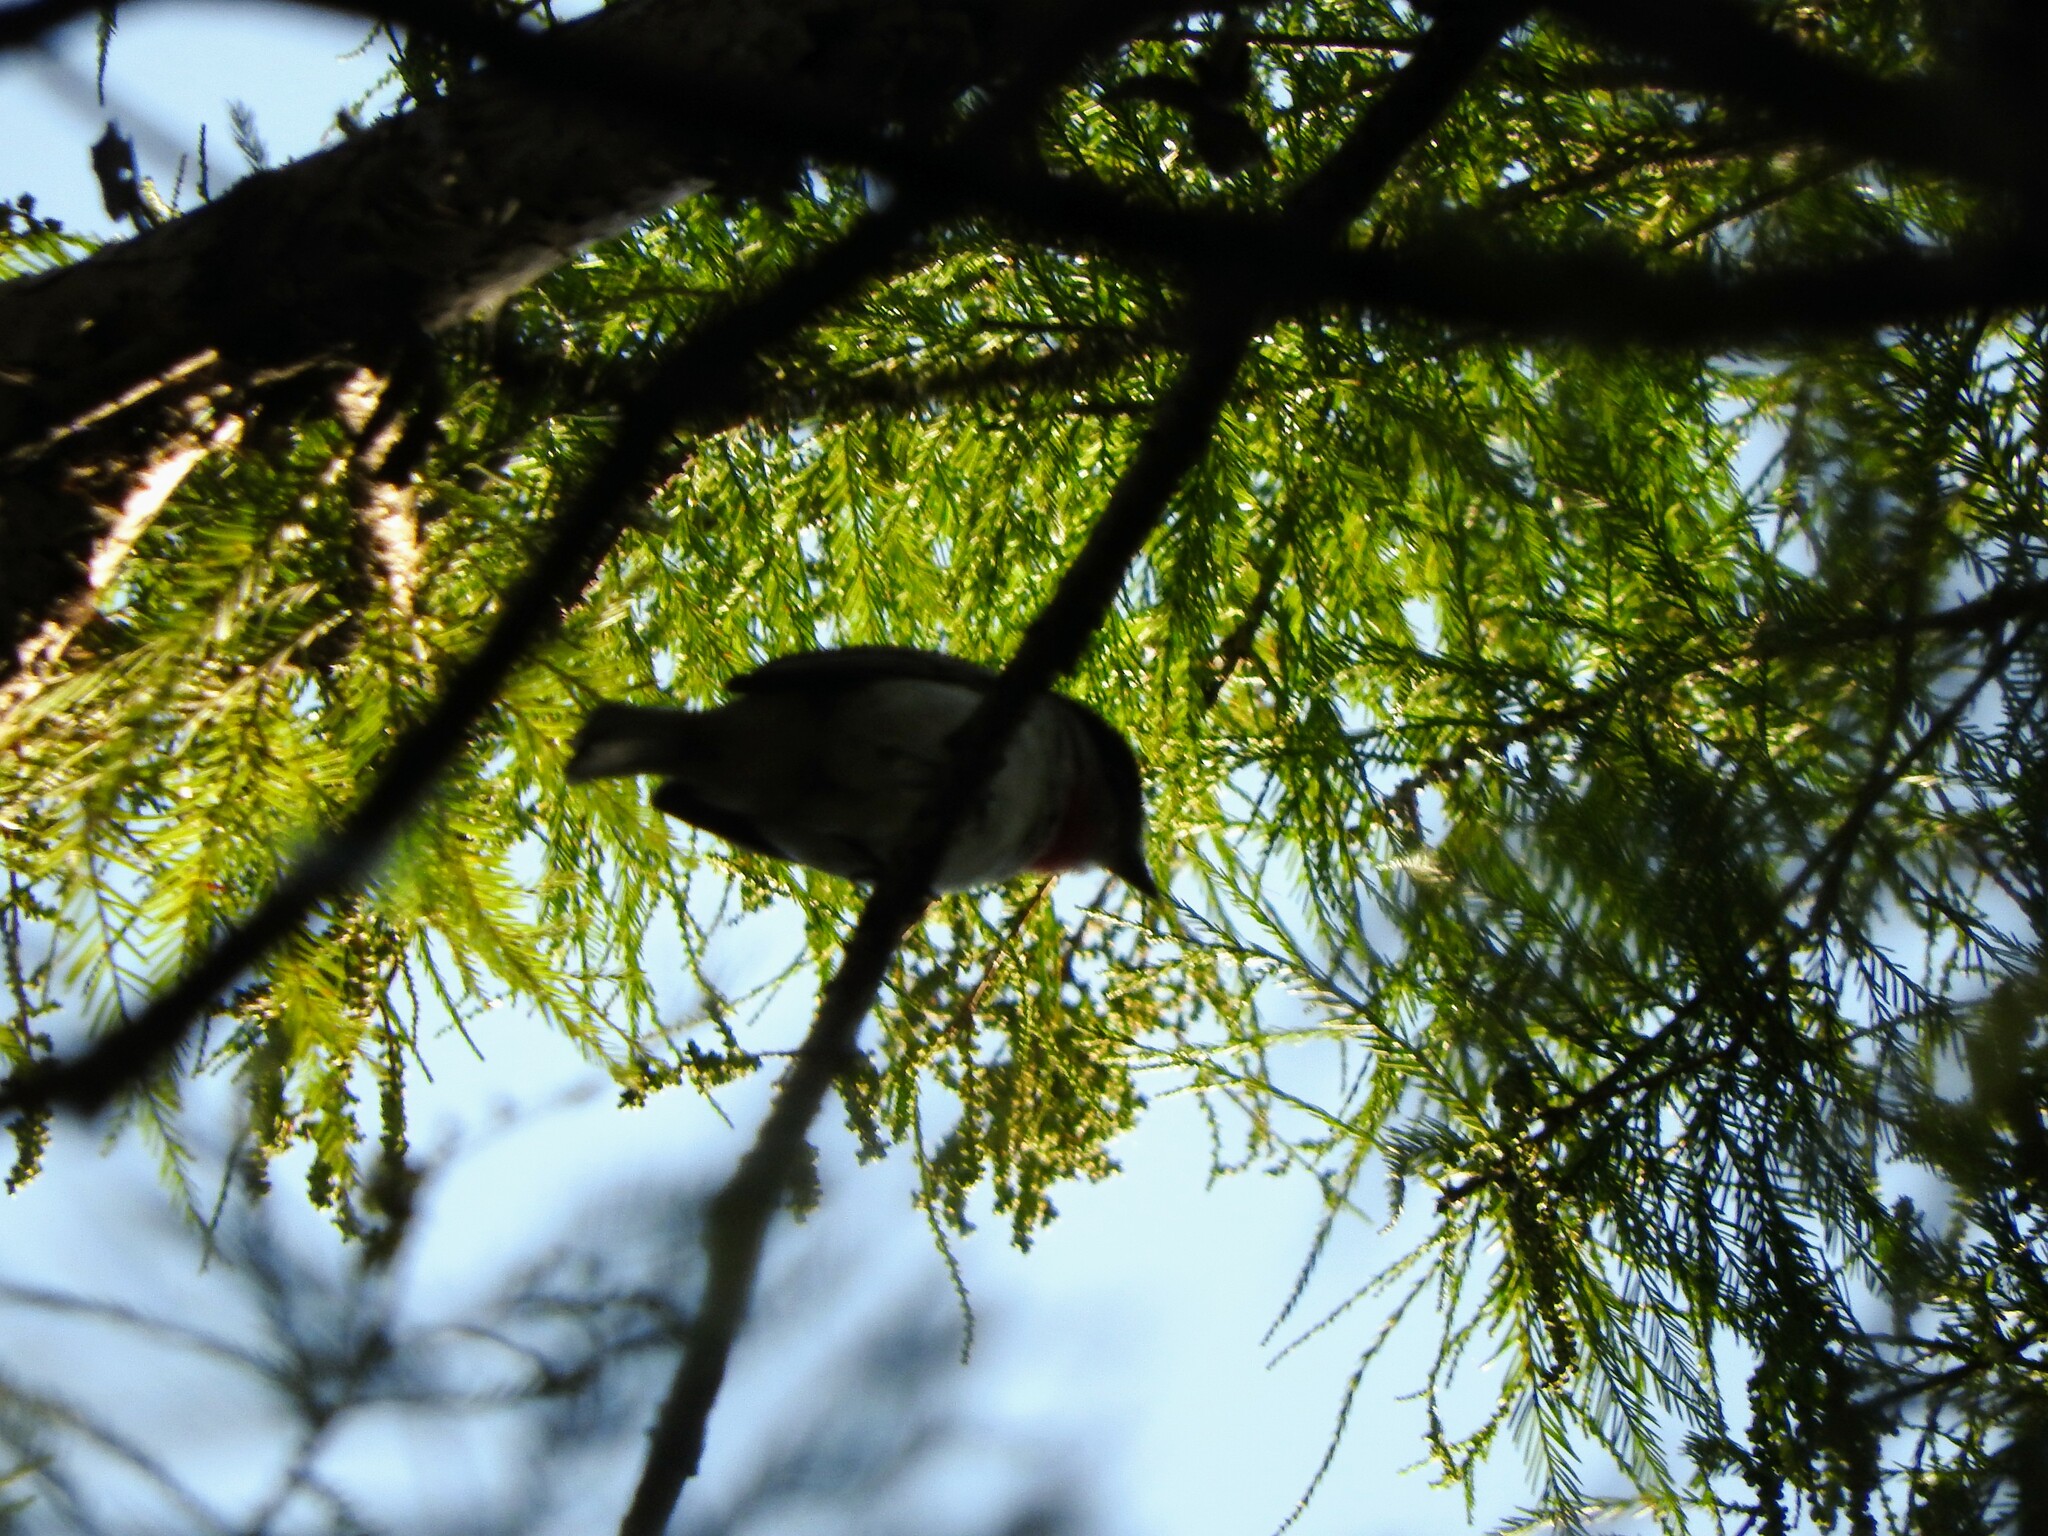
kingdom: Animalia
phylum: Chordata
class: Aves
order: Passeriformes
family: Cotingidae
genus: Pachyramphus
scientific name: Pachyramphus aglaiae
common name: Rose-throated becard
